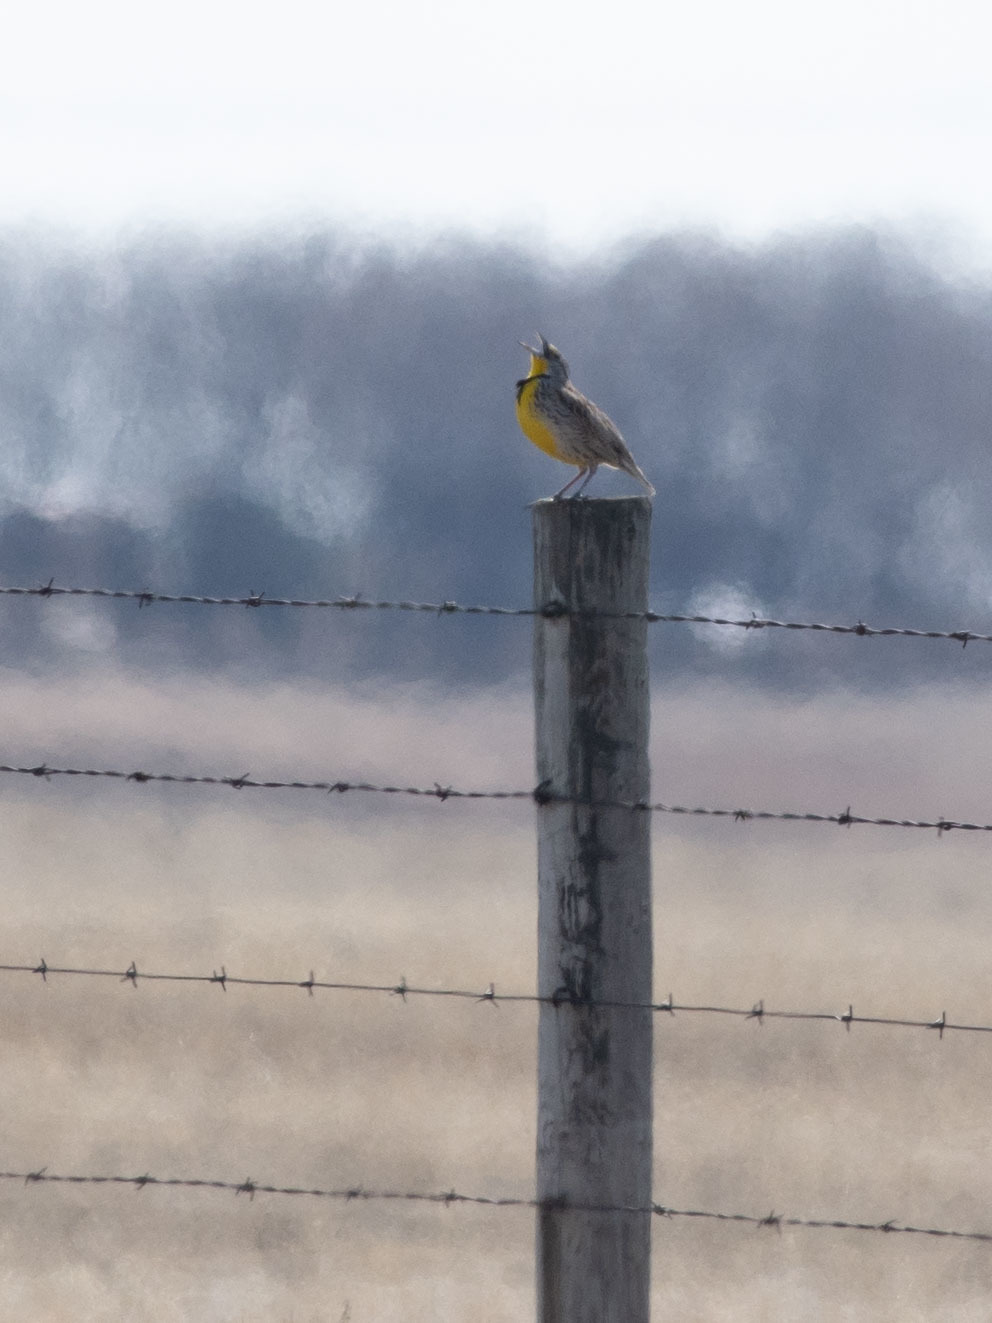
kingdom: Animalia
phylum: Chordata
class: Aves
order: Passeriformes
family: Icteridae
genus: Sturnella
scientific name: Sturnella neglecta
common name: Western meadowlark
